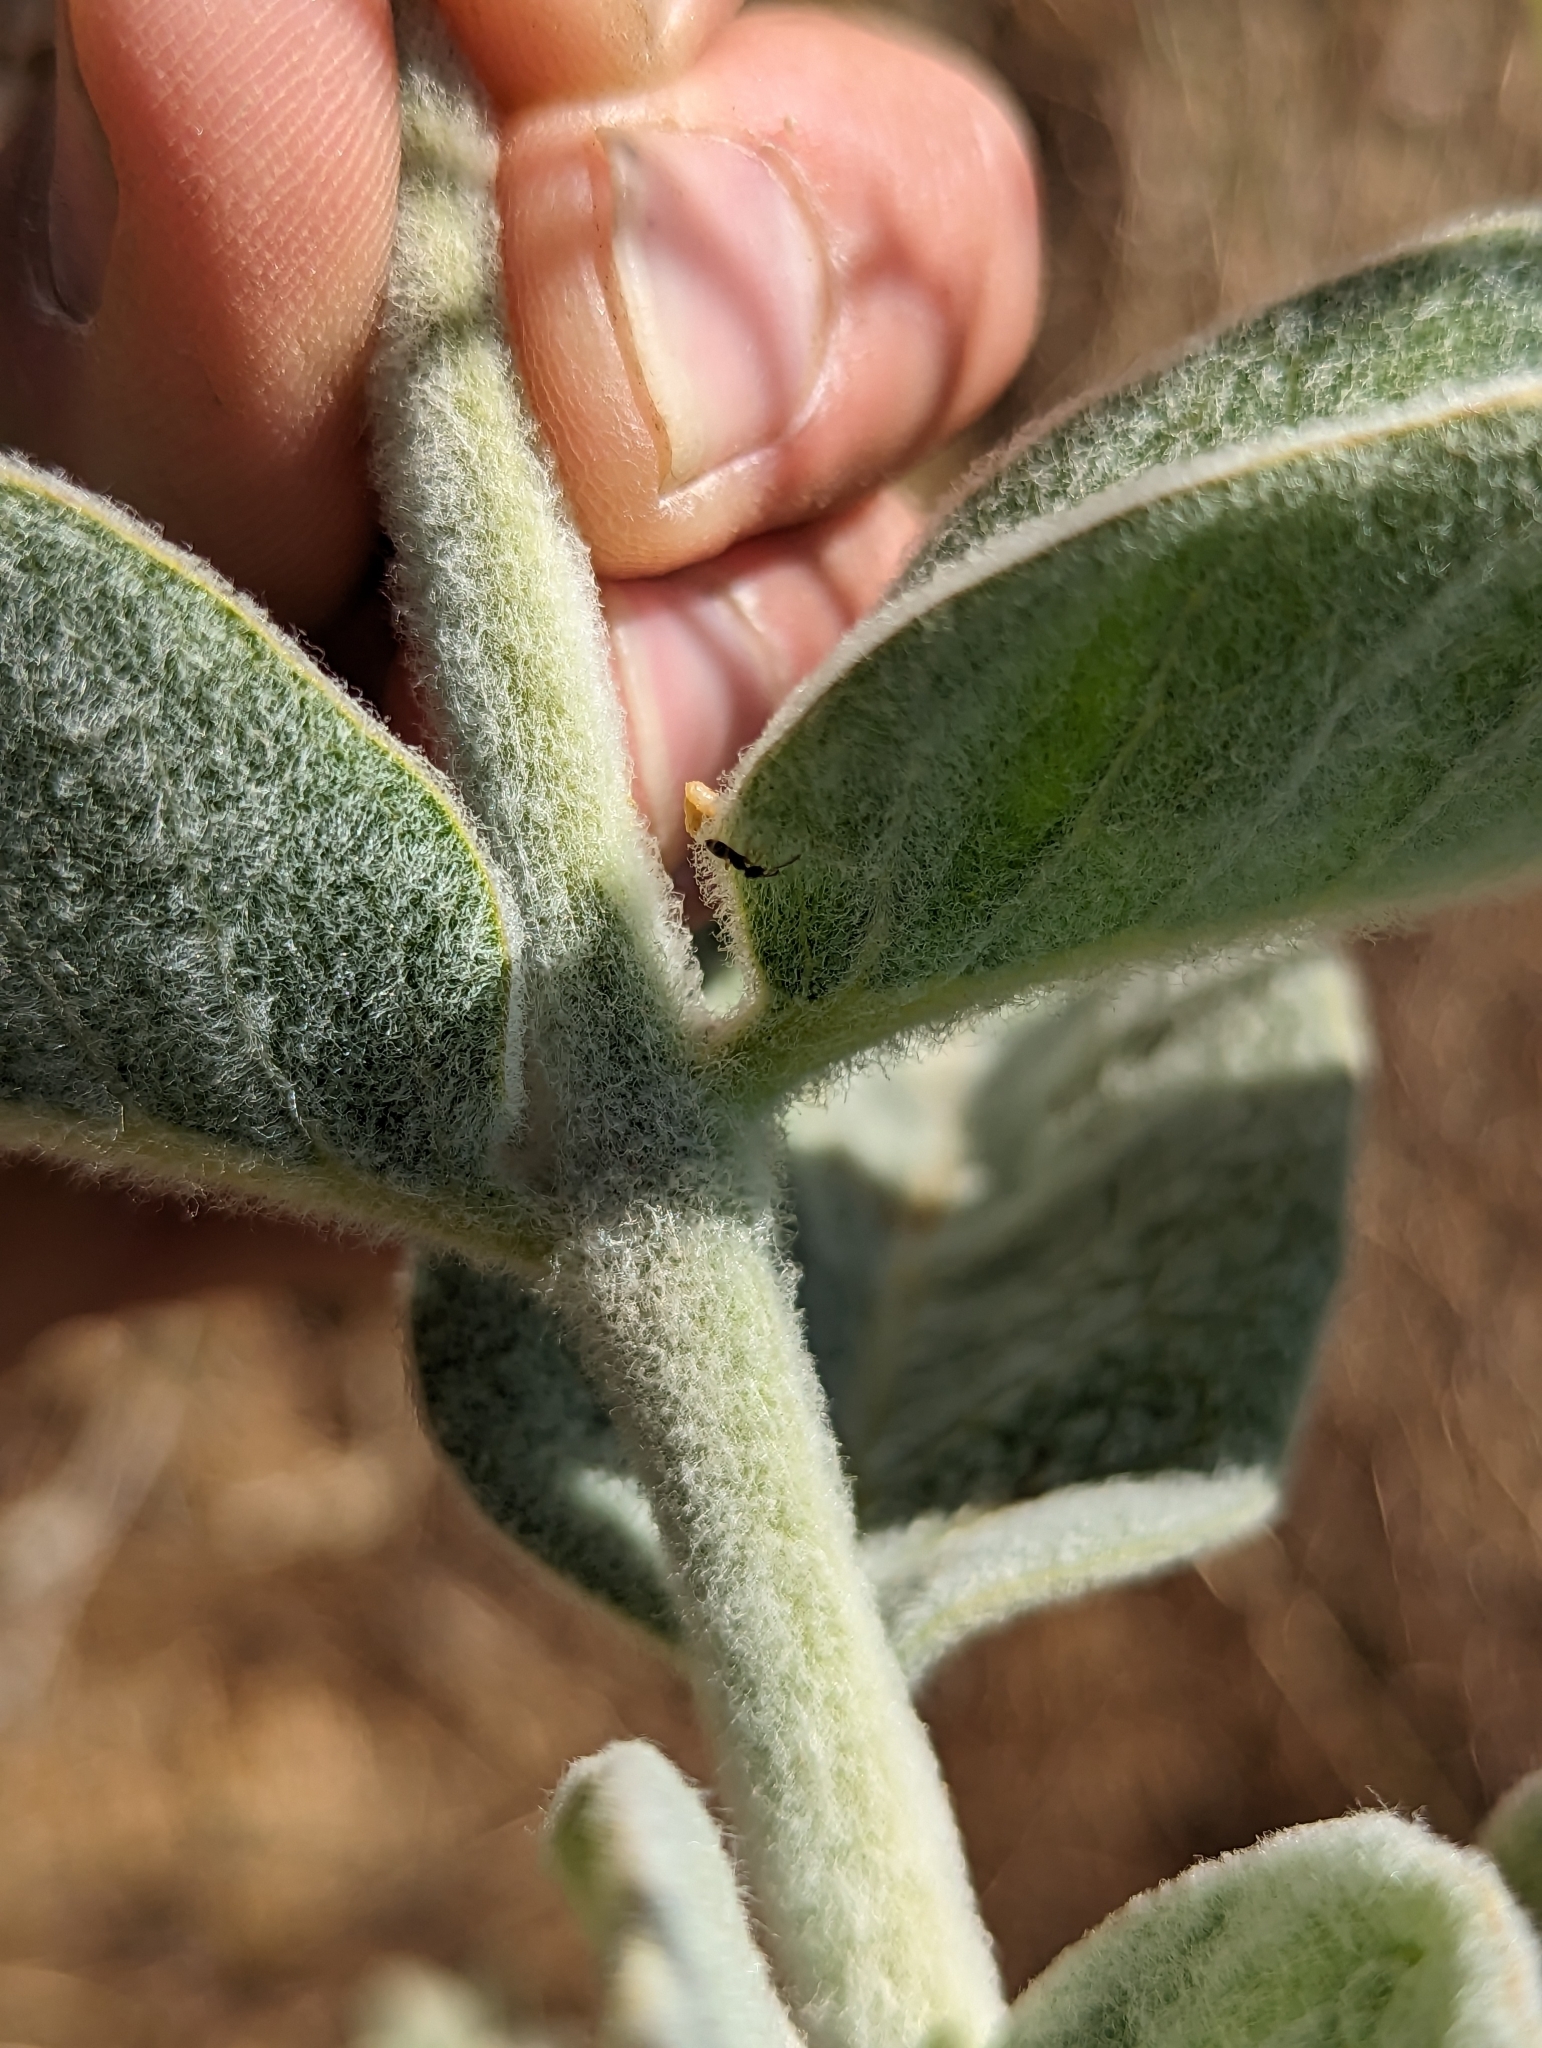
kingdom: Plantae
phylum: Tracheophyta
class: Magnoliopsida
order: Gentianales
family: Apocynaceae
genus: Asclepias
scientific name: Asclepias eriocarpa
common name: Indian milkweed
